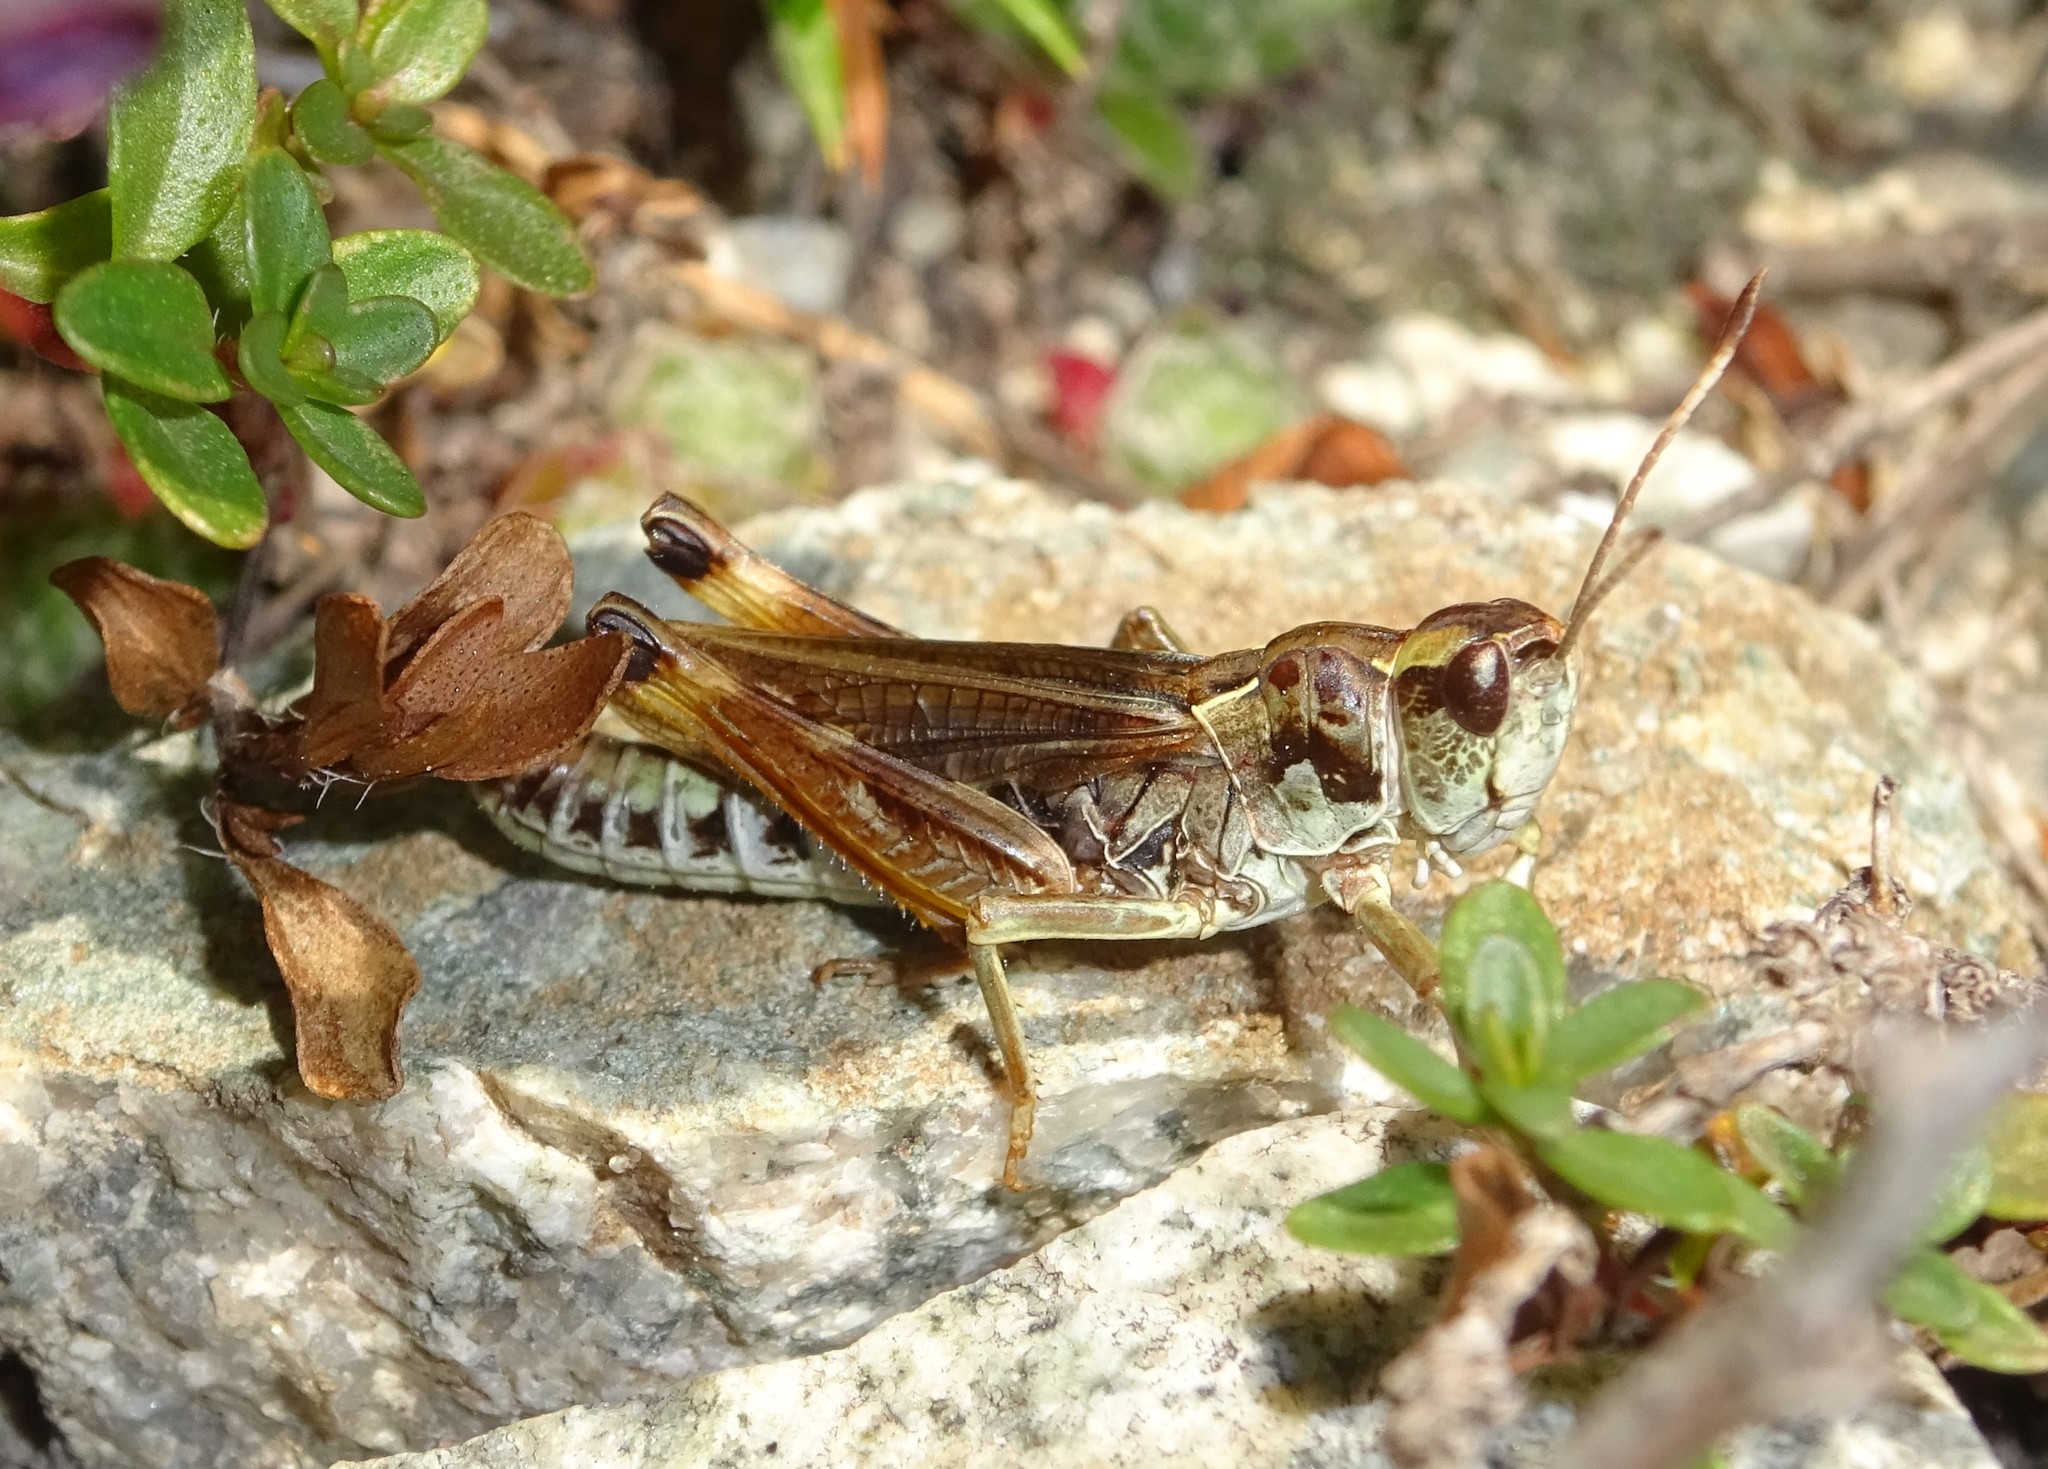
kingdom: Animalia
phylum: Arthropoda
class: Insecta
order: Orthoptera
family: Acrididae
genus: Gomphocerus
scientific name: Gomphocerus sibiricus
